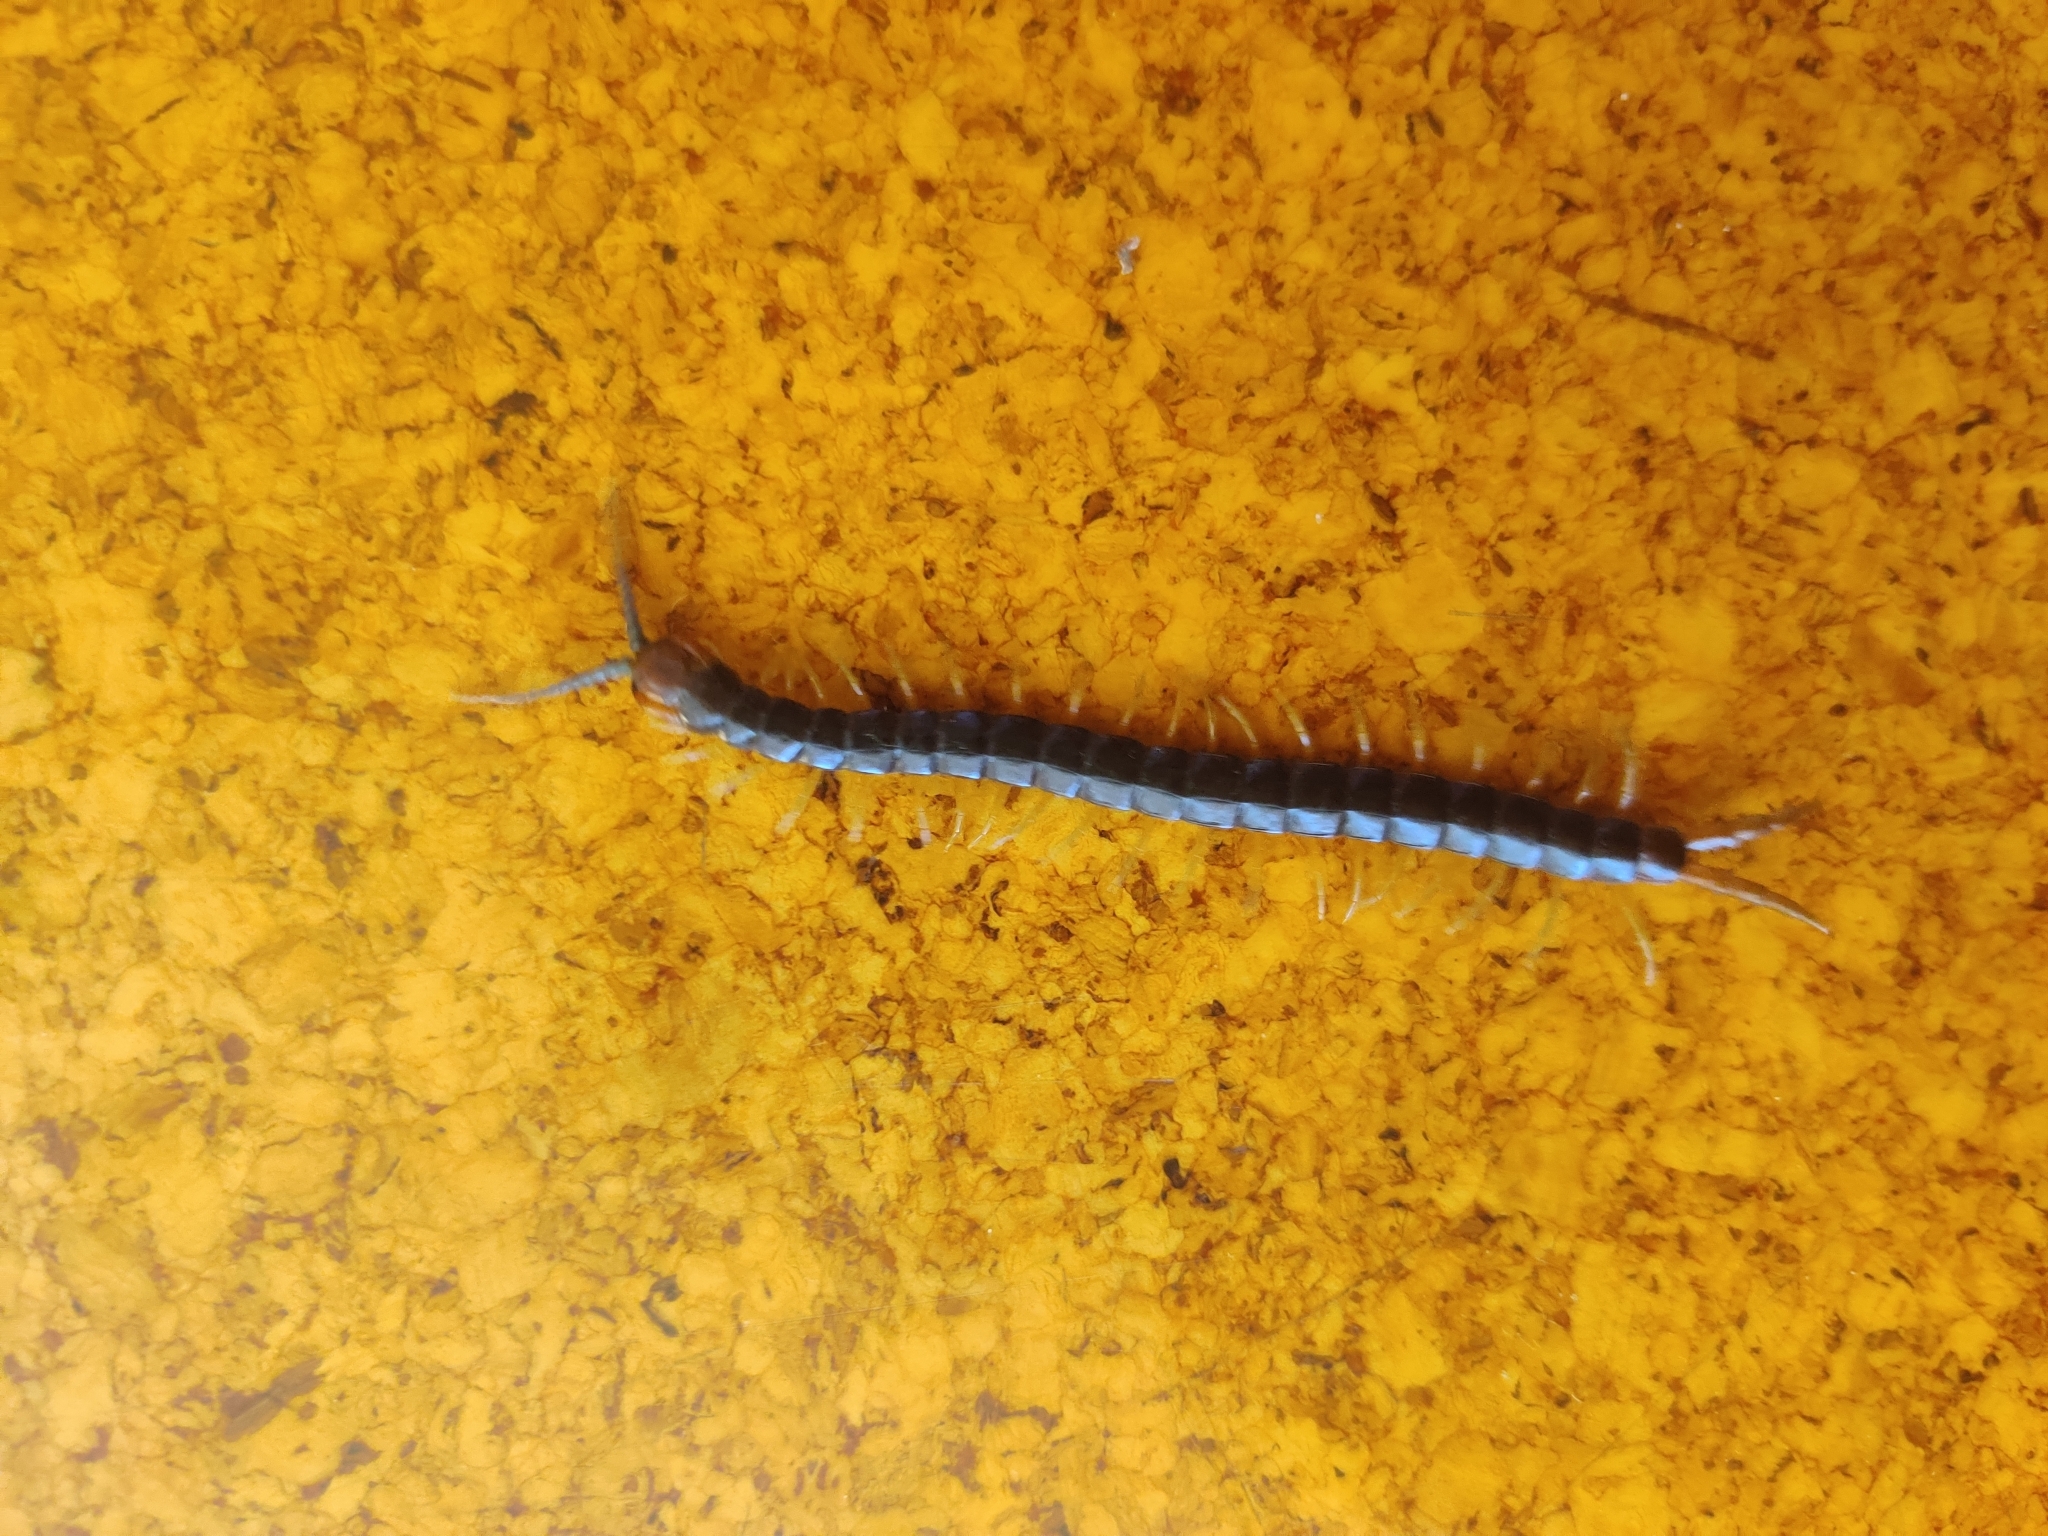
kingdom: Animalia
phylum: Arthropoda
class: Chilopoda
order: Scolopendromorpha
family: Scolopendridae
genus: Cormocephalus
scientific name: Cormocephalus westwoodi
